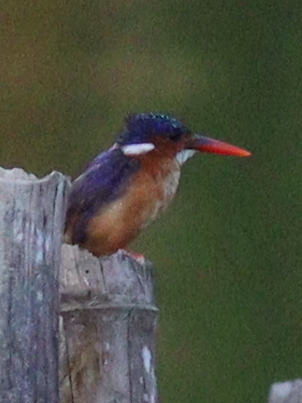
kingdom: Animalia
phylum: Chordata
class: Aves
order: Coraciiformes
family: Alcedinidae
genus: Corythornis
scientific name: Corythornis cristatus
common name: Malachite kingfisher
